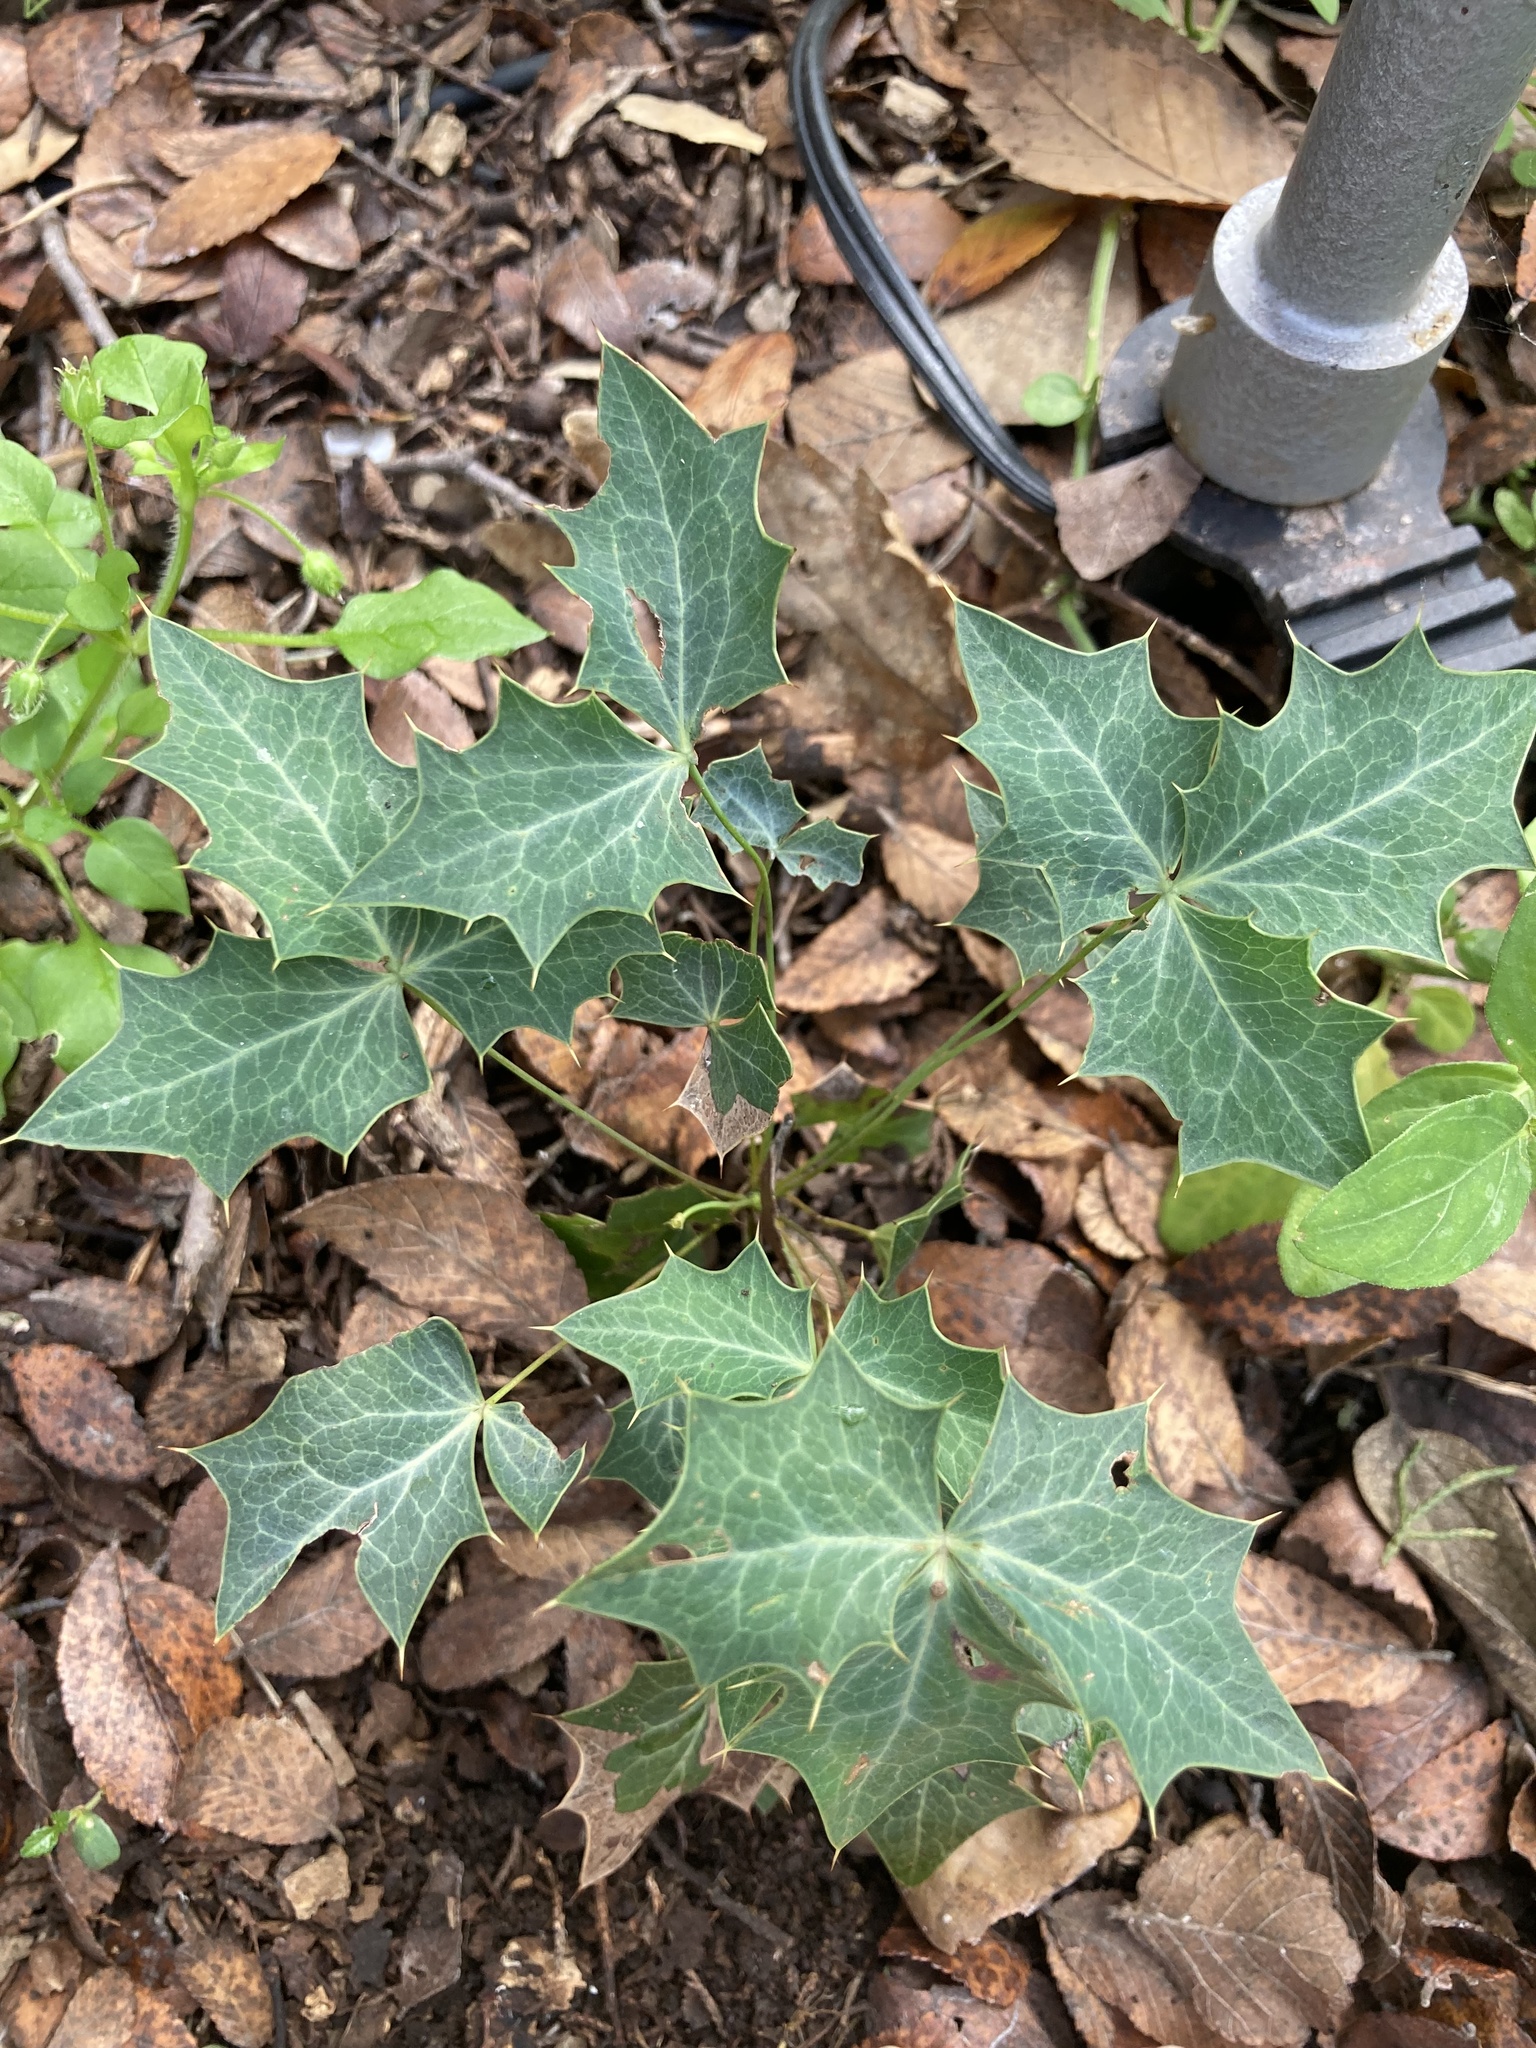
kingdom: Plantae
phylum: Tracheophyta
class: Magnoliopsida
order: Ranunculales
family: Berberidaceae
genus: Alloberberis
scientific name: Alloberberis trifoliolata
